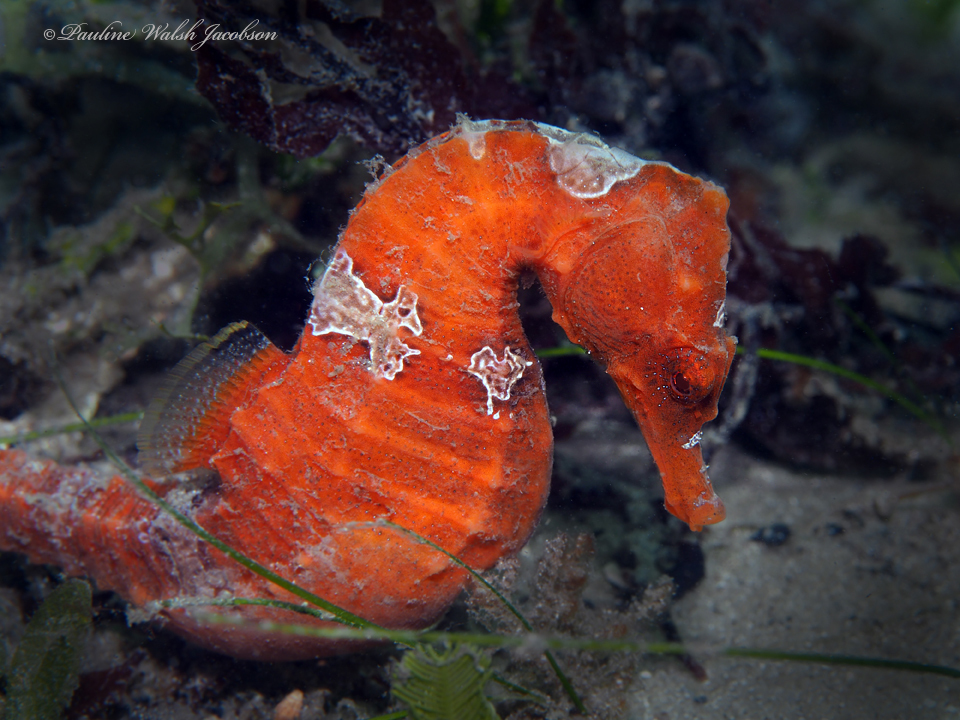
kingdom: Animalia
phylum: Chordata
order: Syngnathiformes
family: Syngnathidae
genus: Hippocampus
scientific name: Hippocampus erectus
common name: Lined seahorse
